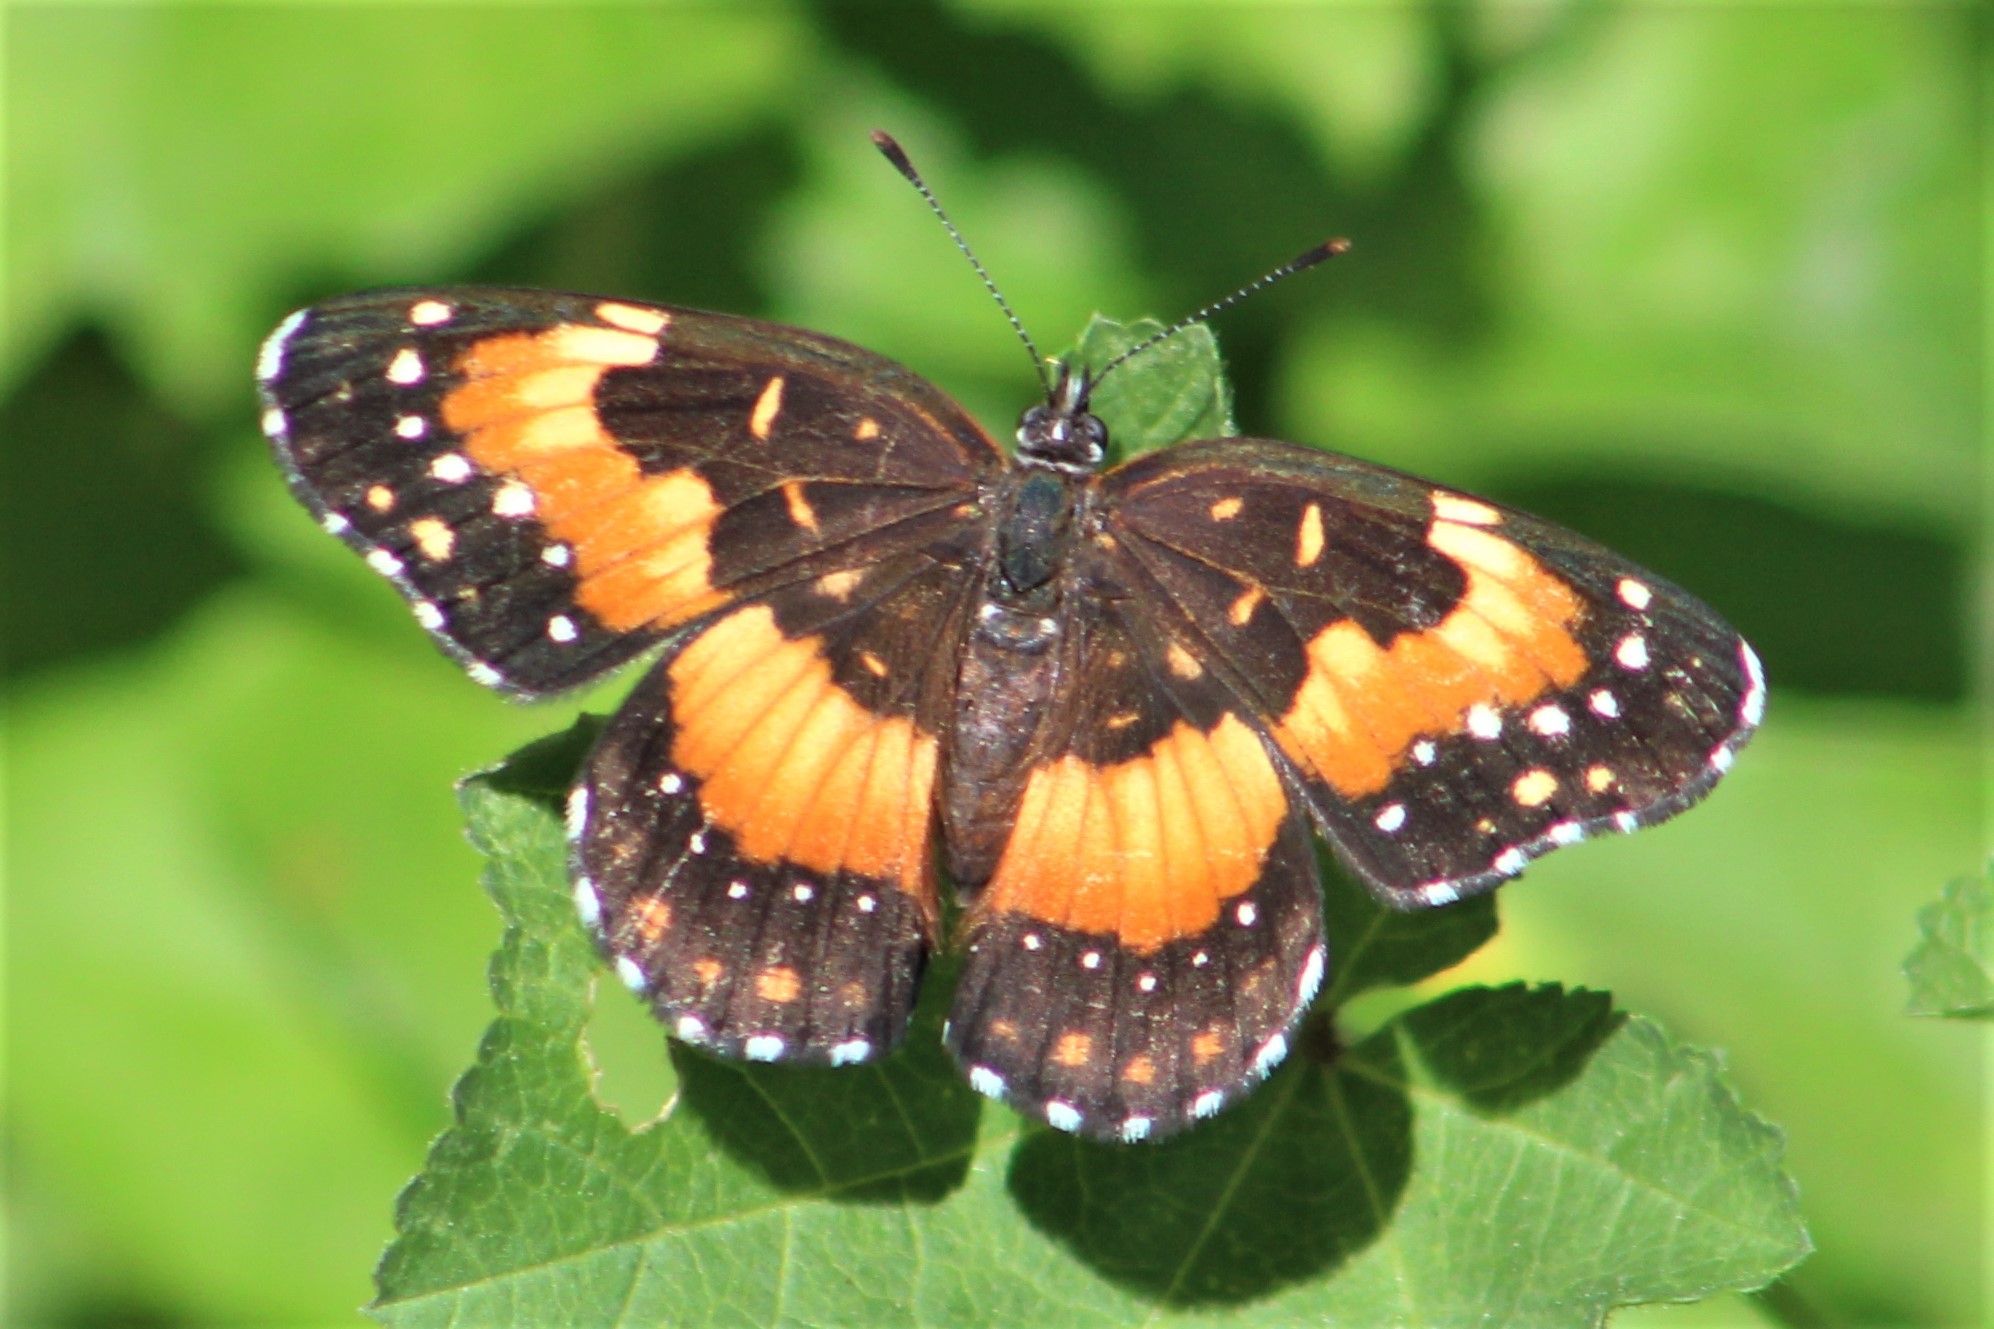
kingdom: Animalia
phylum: Arthropoda
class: Insecta
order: Lepidoptera
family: Nymphalidae
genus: Chlosyne
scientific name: Chlosyne lacinia
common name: Bordered patch
